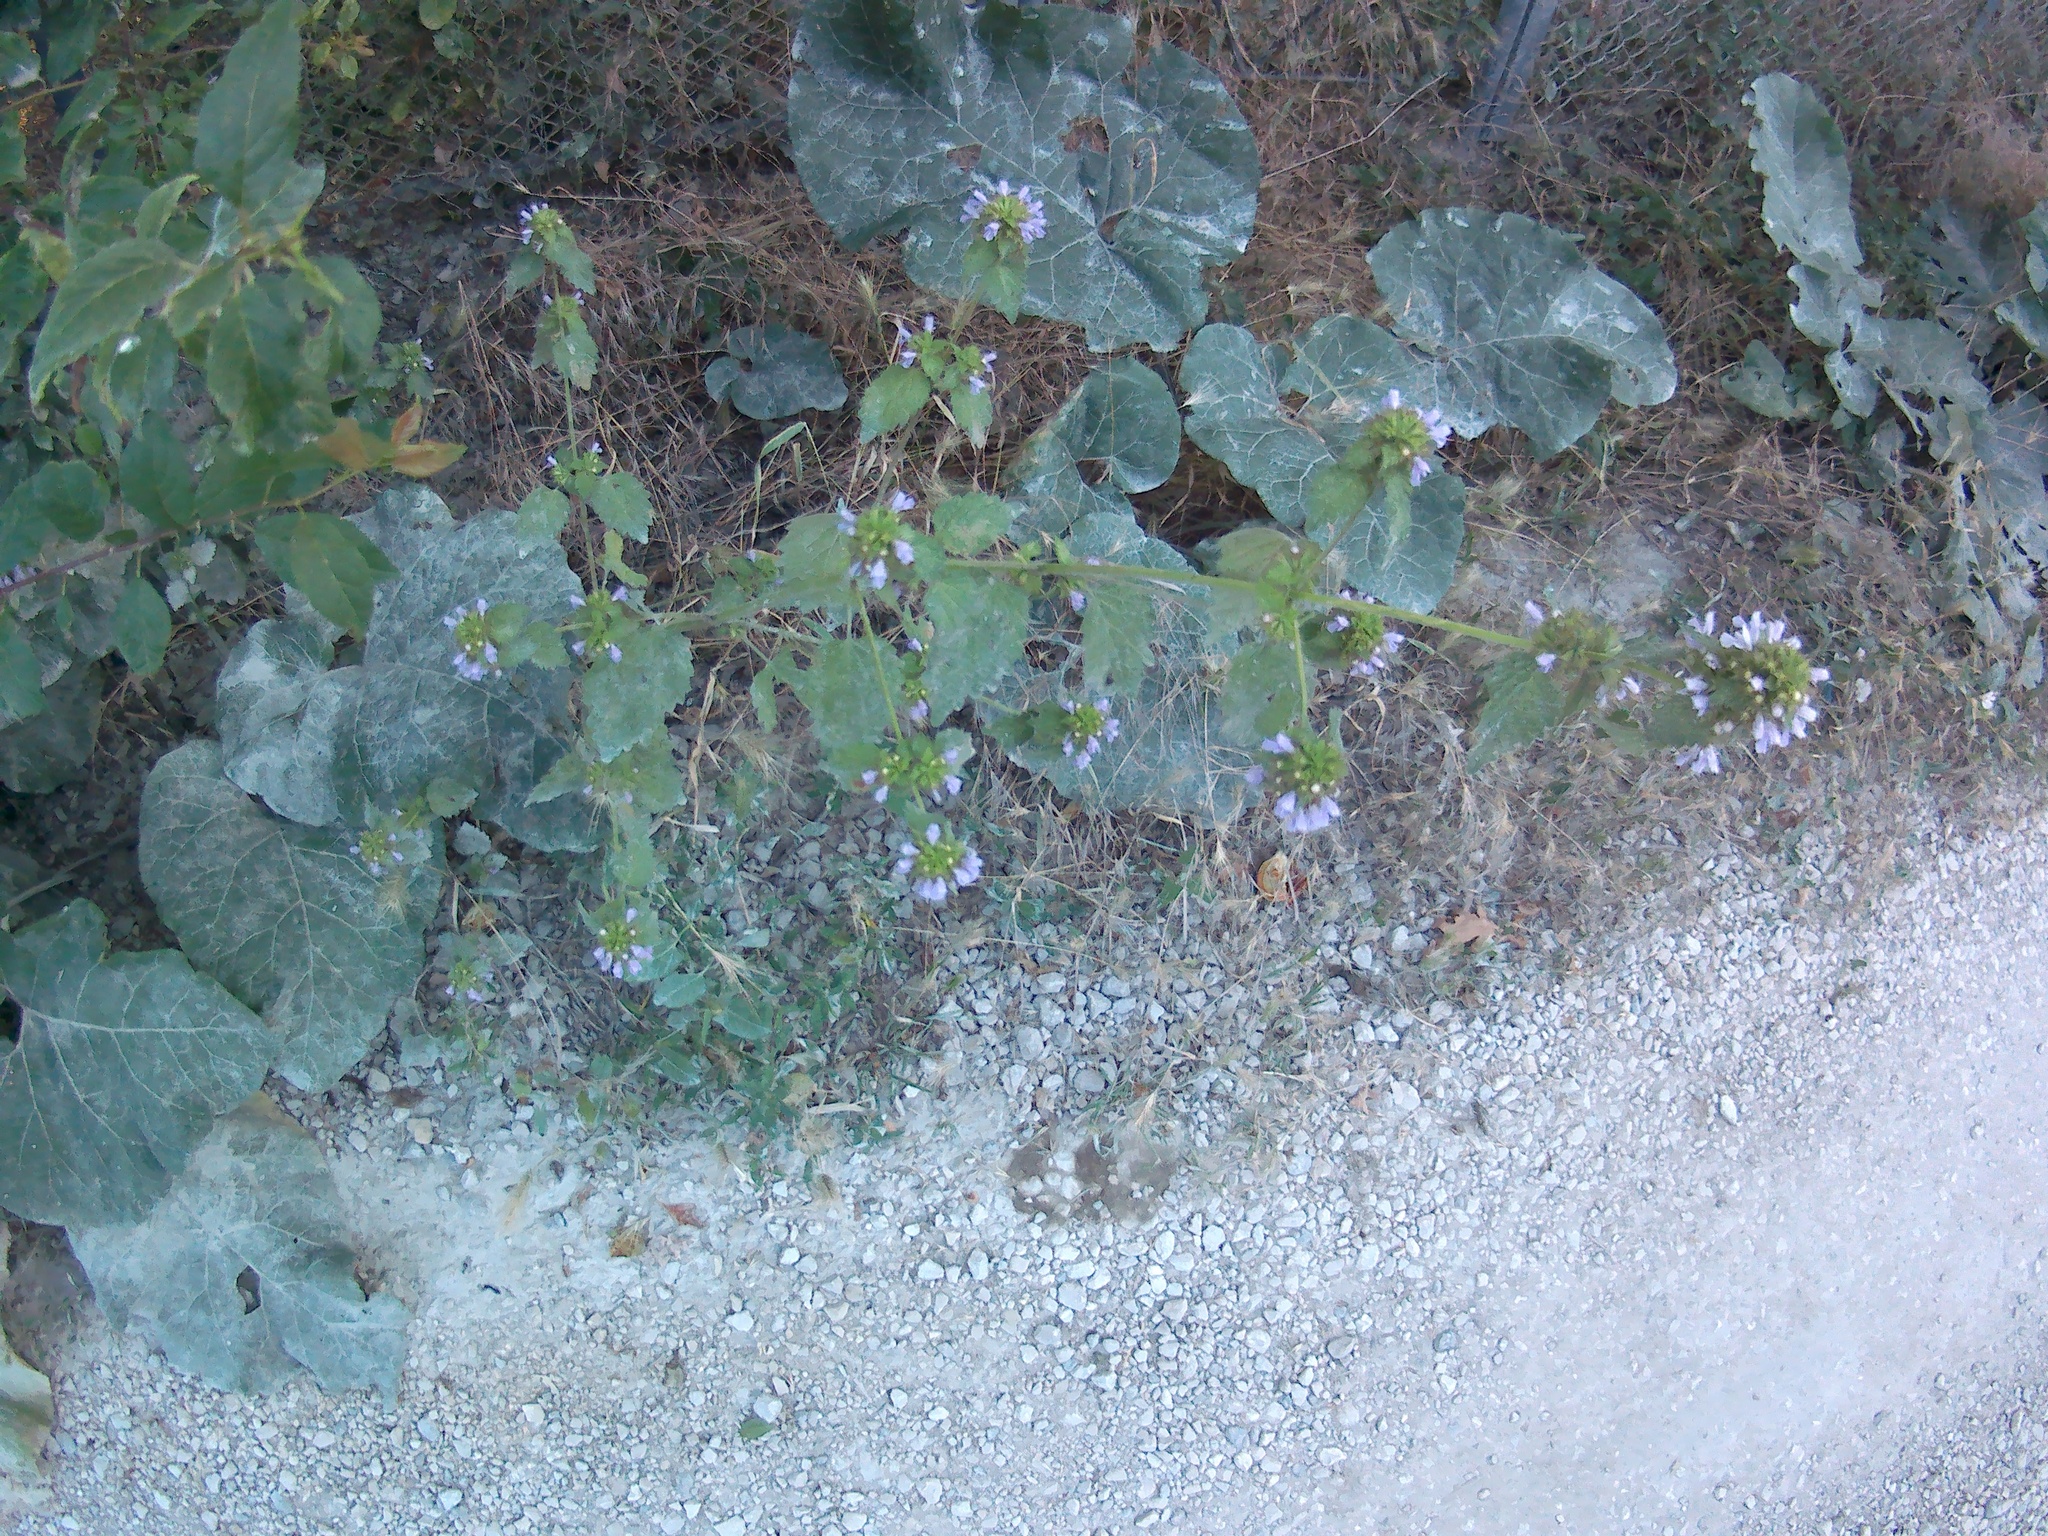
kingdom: Plantae
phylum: Tracheophyta
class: Magnoliopsida
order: Lamiales
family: Lamiaceae
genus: Ballota
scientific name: Ballota nigra
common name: Black horehound
